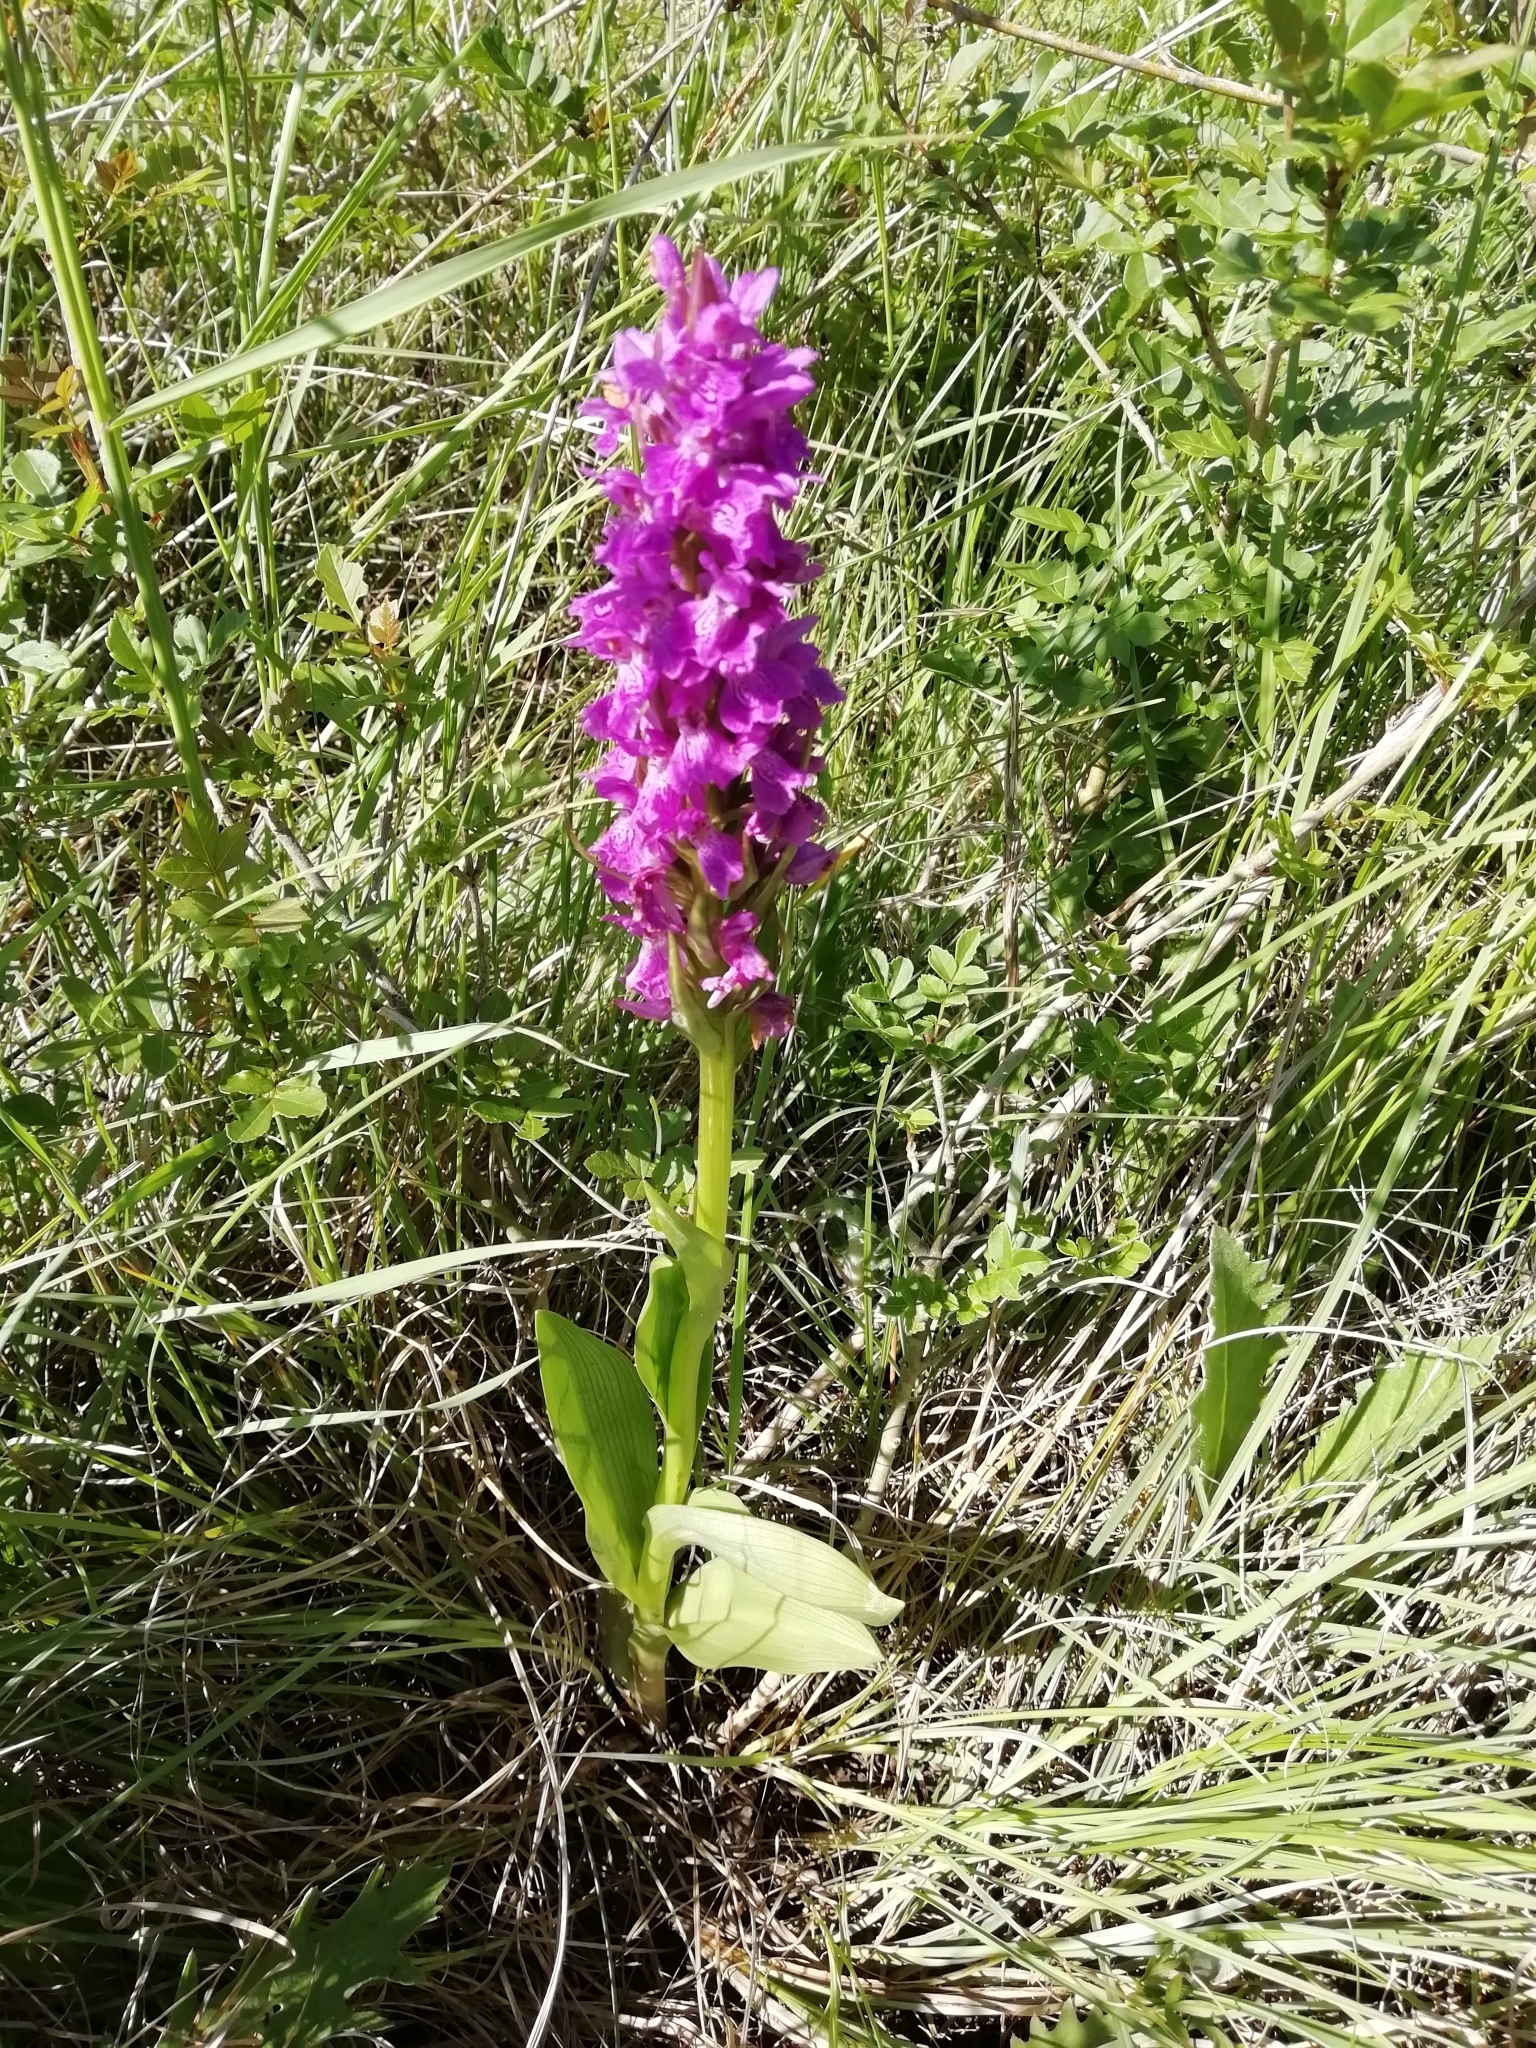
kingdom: Plantae
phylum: Tracheophyta
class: Liliopsida
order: Asparagales
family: Orchidaceae
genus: Dactylorhiza
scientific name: Dactylorhiza elata
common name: Stately dactylorhiza
